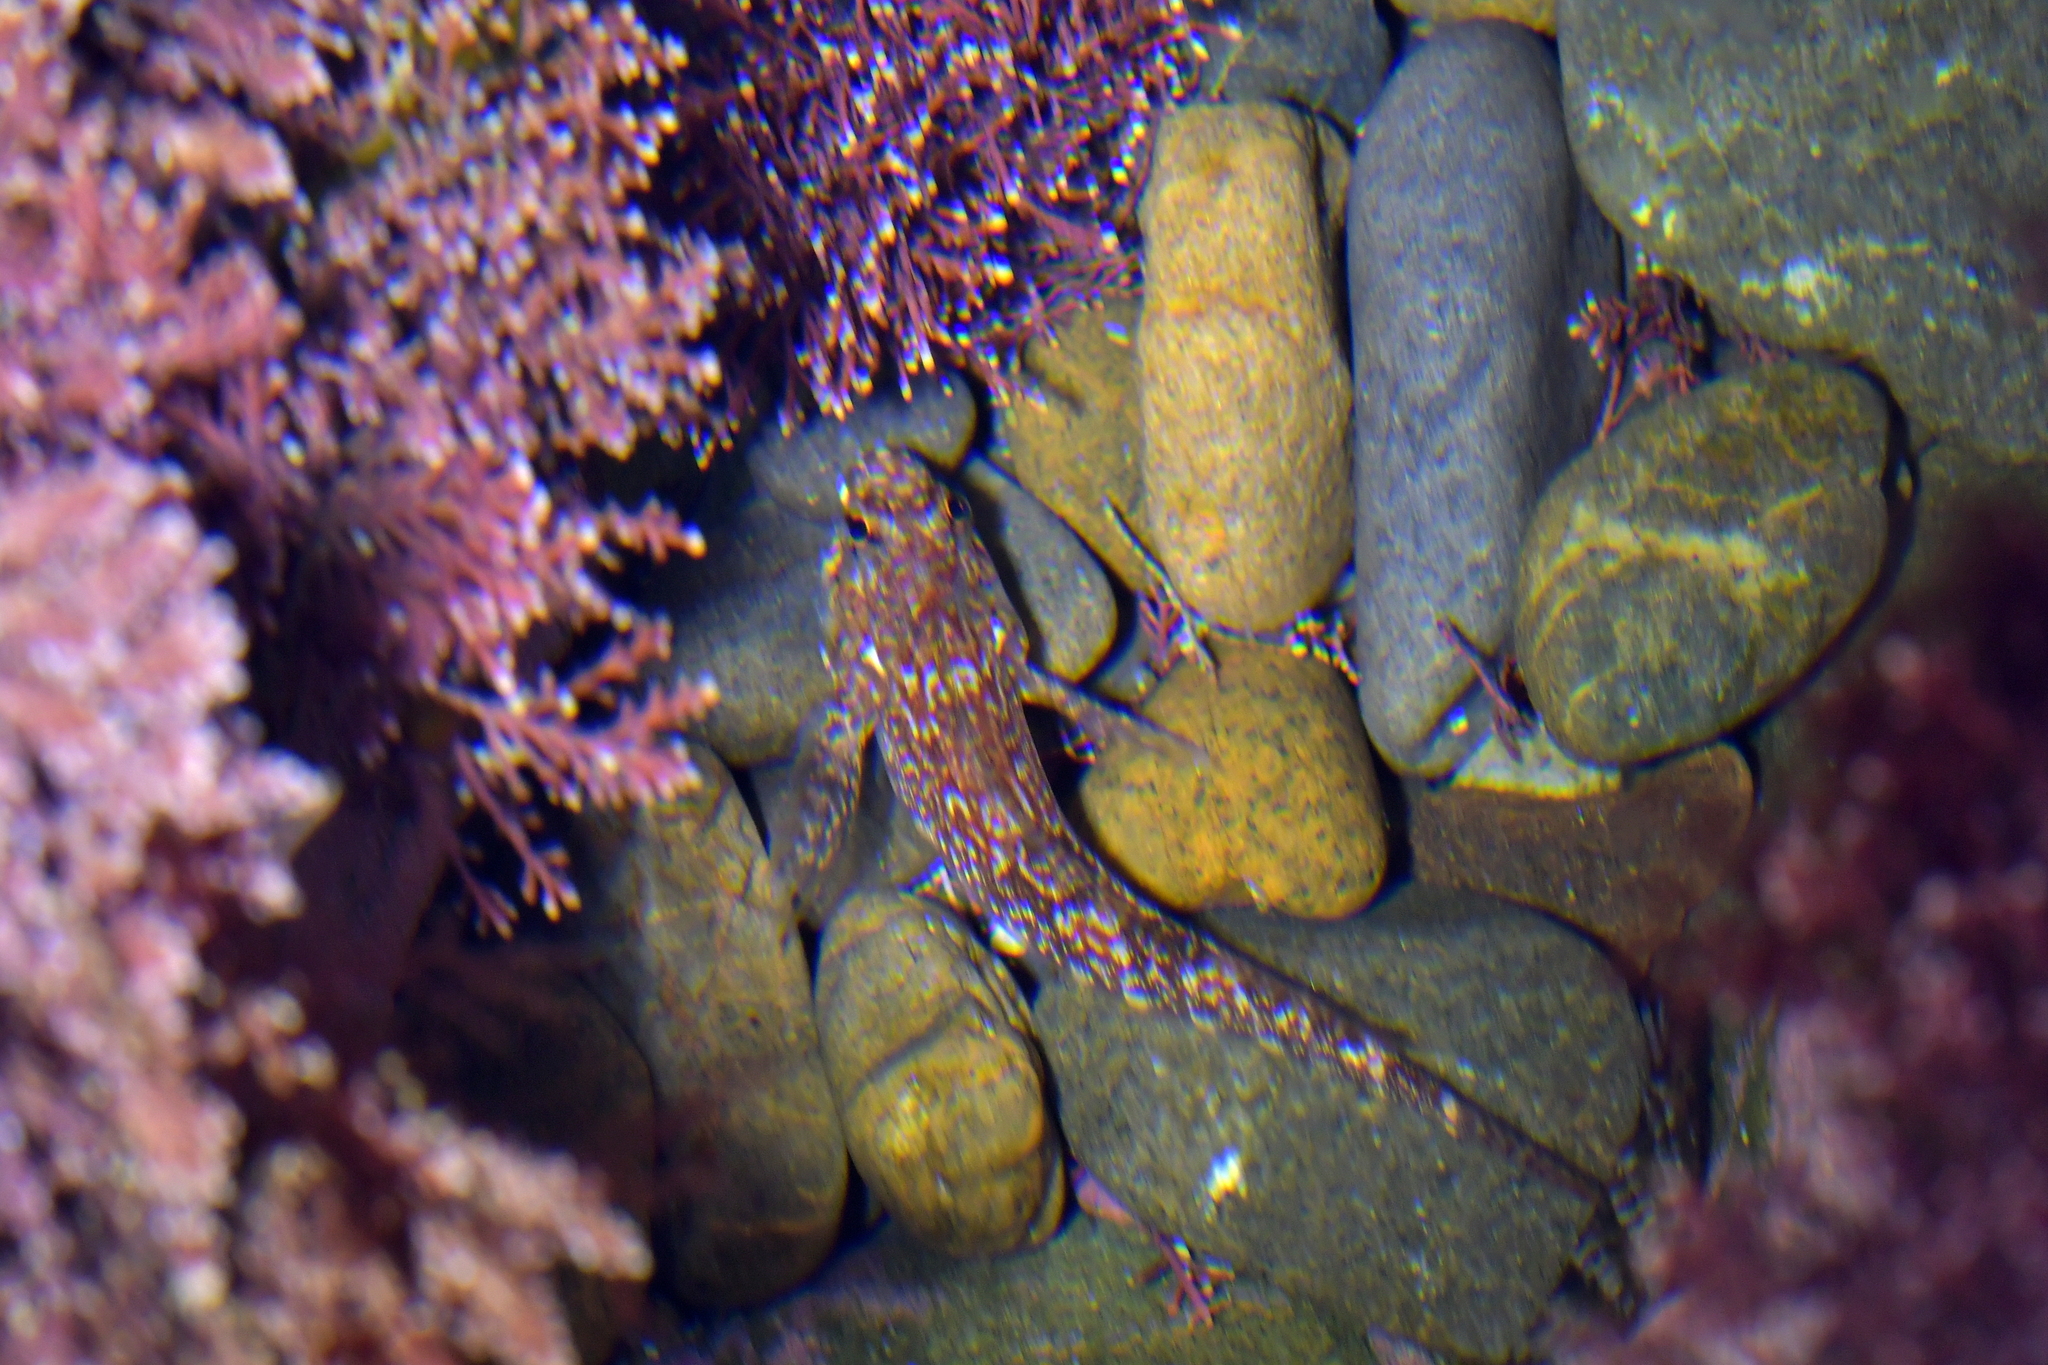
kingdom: Animalia
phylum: Chordata
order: Perciformes
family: Tripterygiidae
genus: Bellapiscis
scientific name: Bellapiscis medius
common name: Twister
